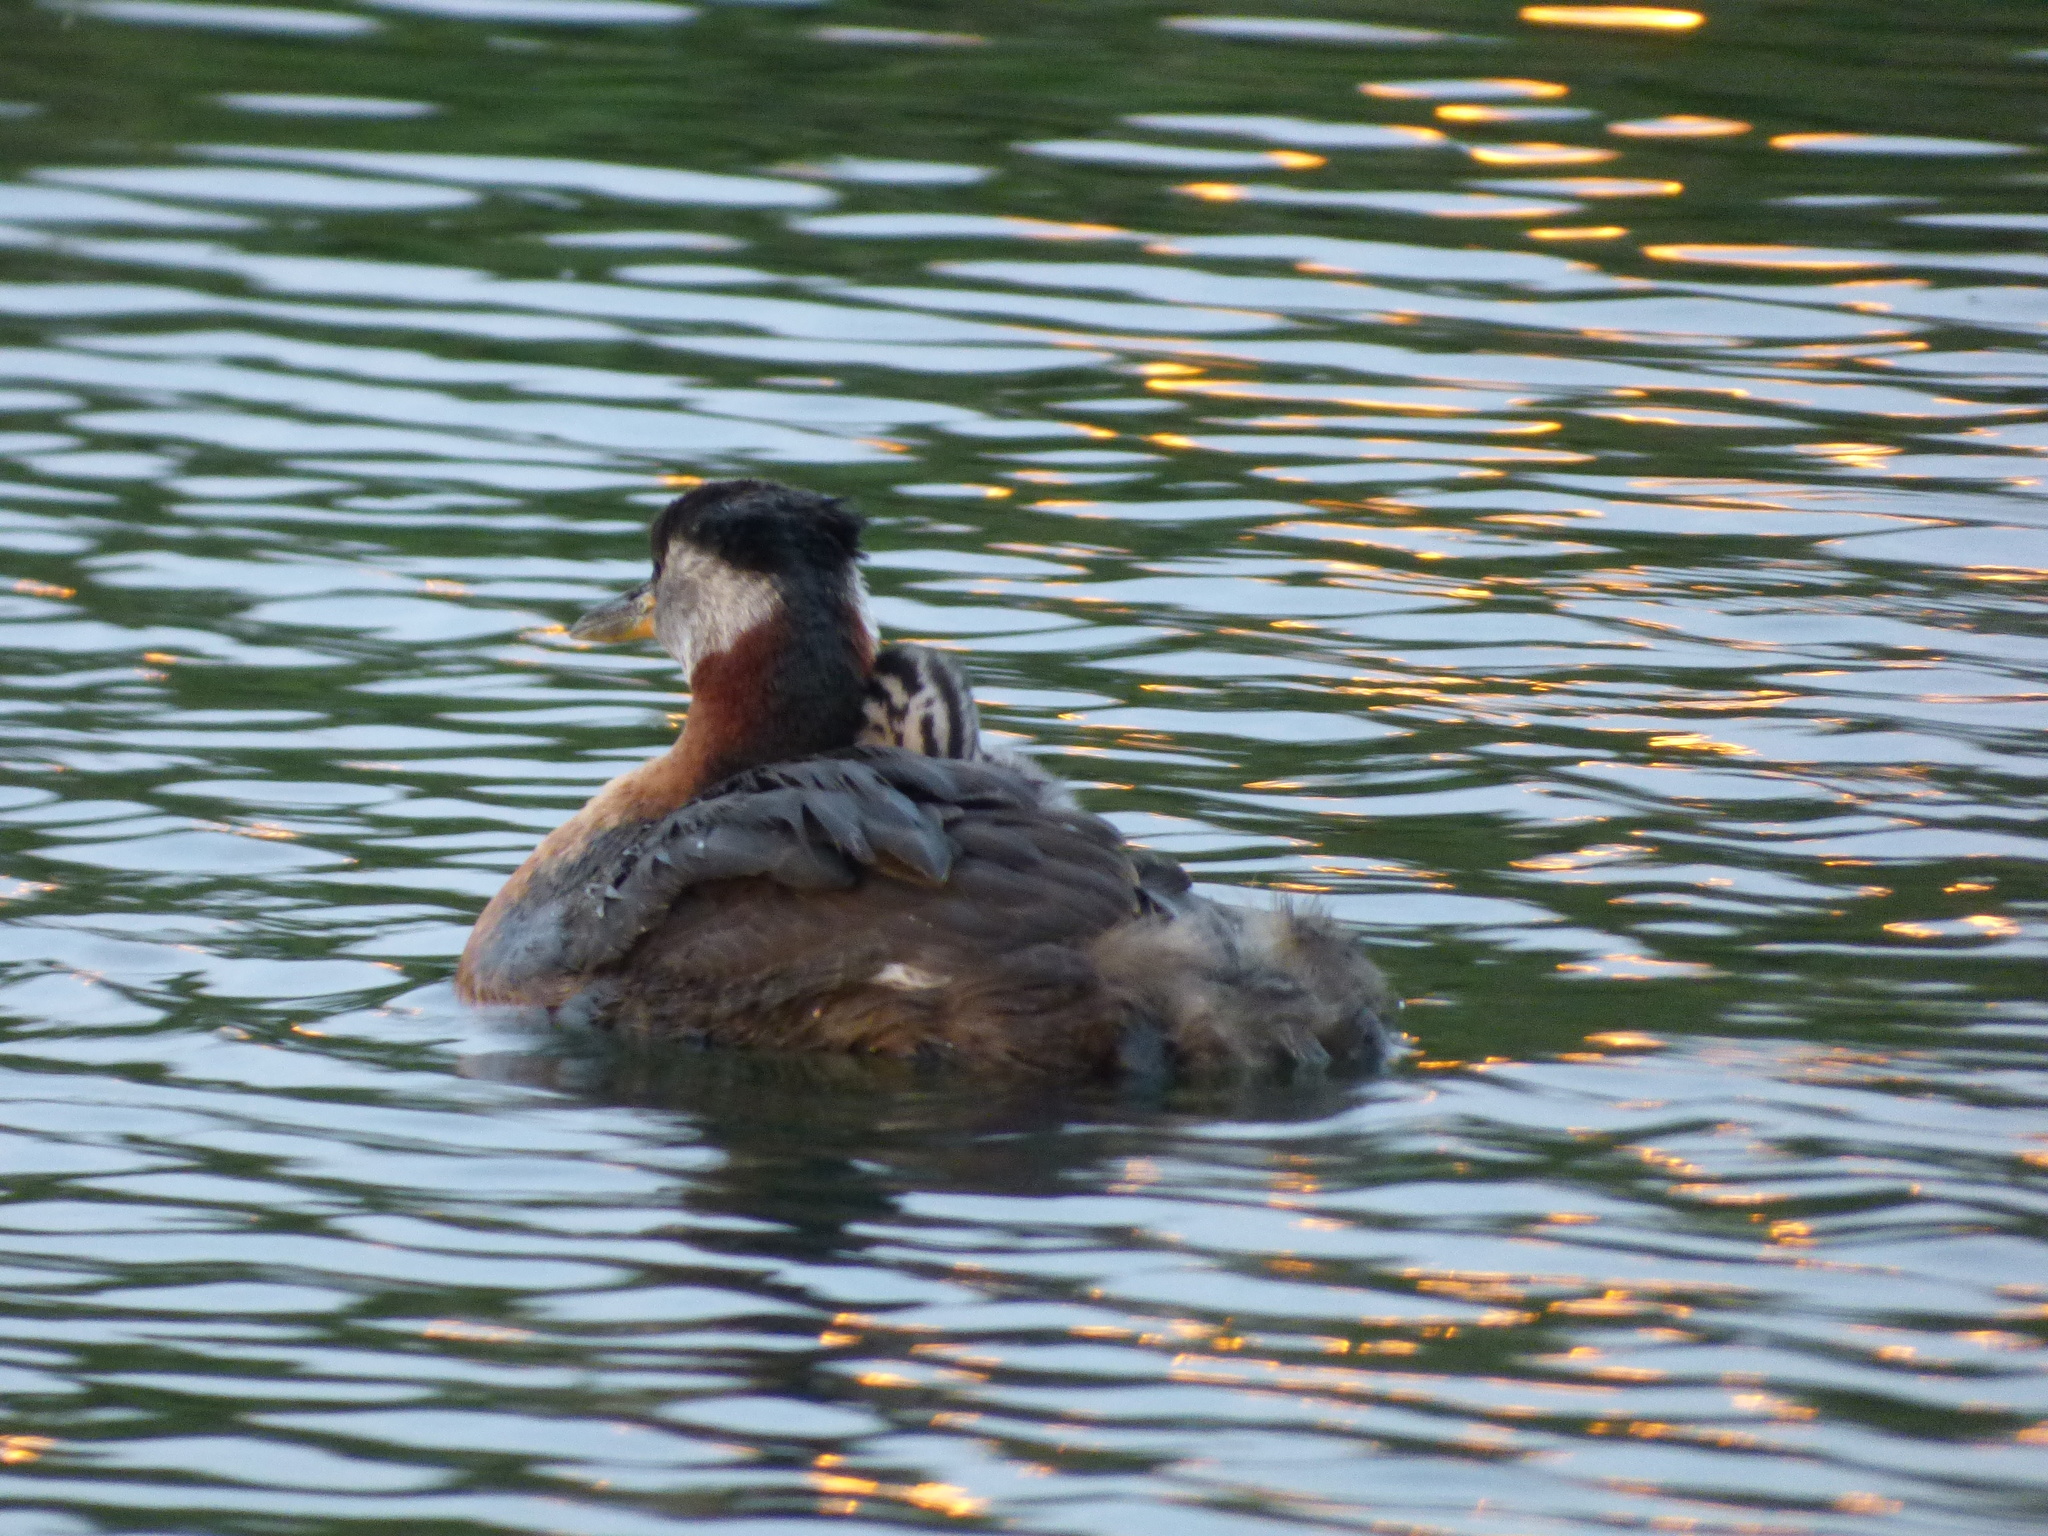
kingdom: Animalia
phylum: Chordata
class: Aves
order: Podicipediformes
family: Podicipedidae
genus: Podiceps
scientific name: Podiceps grisegena
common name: Red-necked grebe
